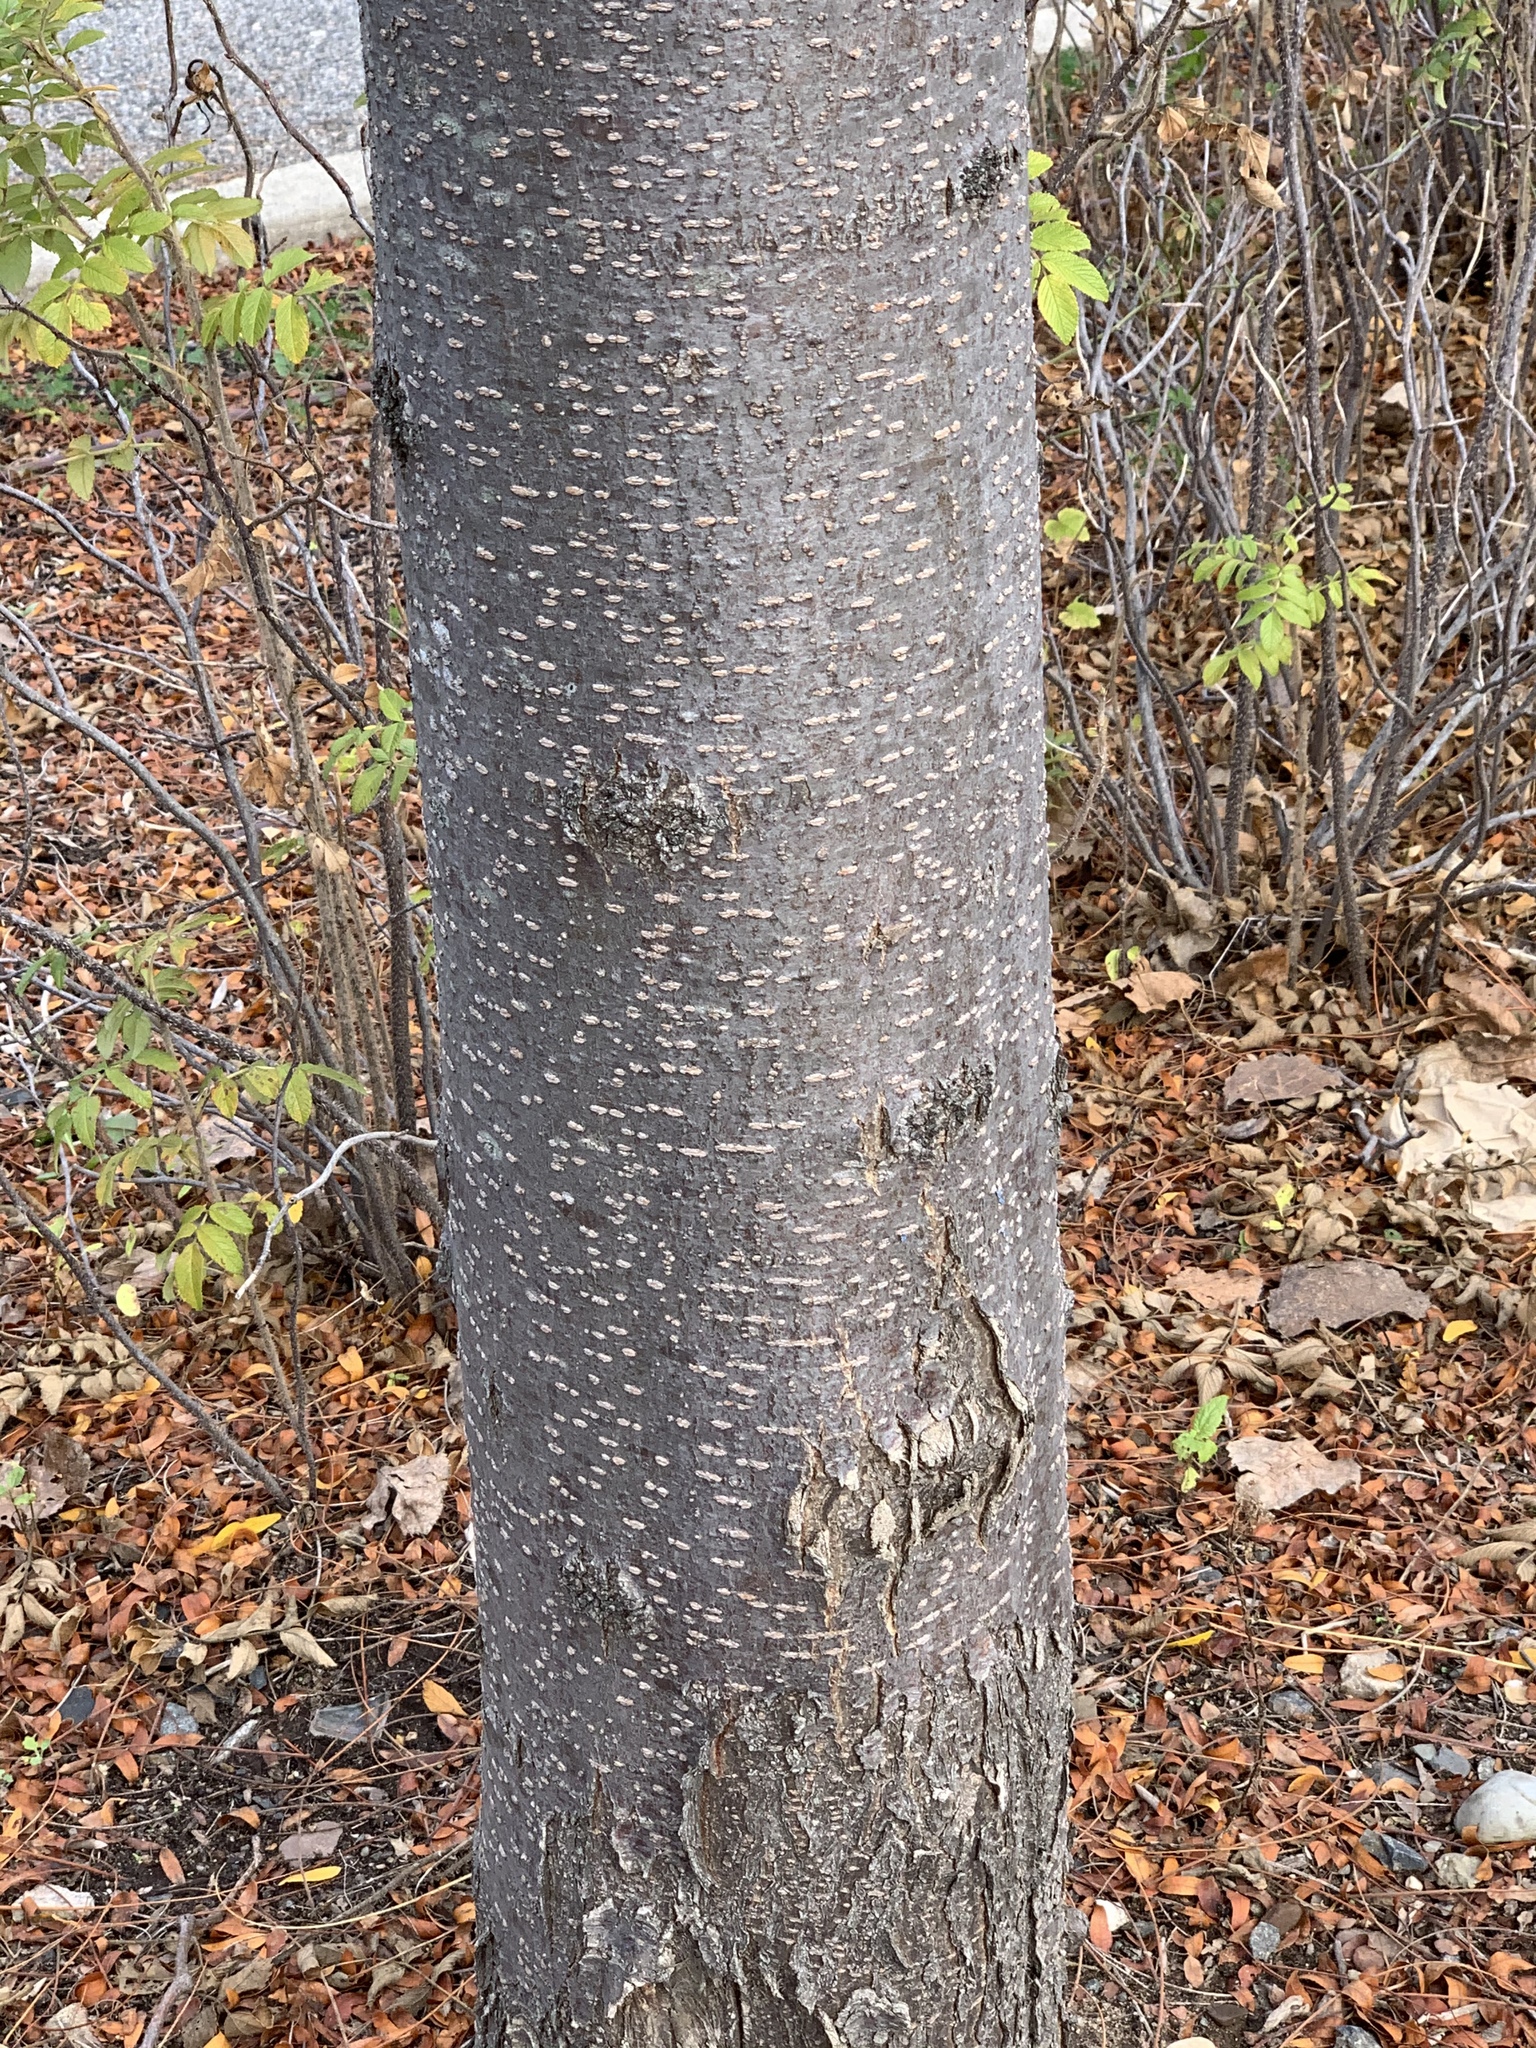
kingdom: Plantae
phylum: Tracheophyta
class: Magnoliopsida
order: Fabales
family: Fabaceae
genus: Gleditsia
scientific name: Gleditsia triacanthos
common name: Common honeylocust
